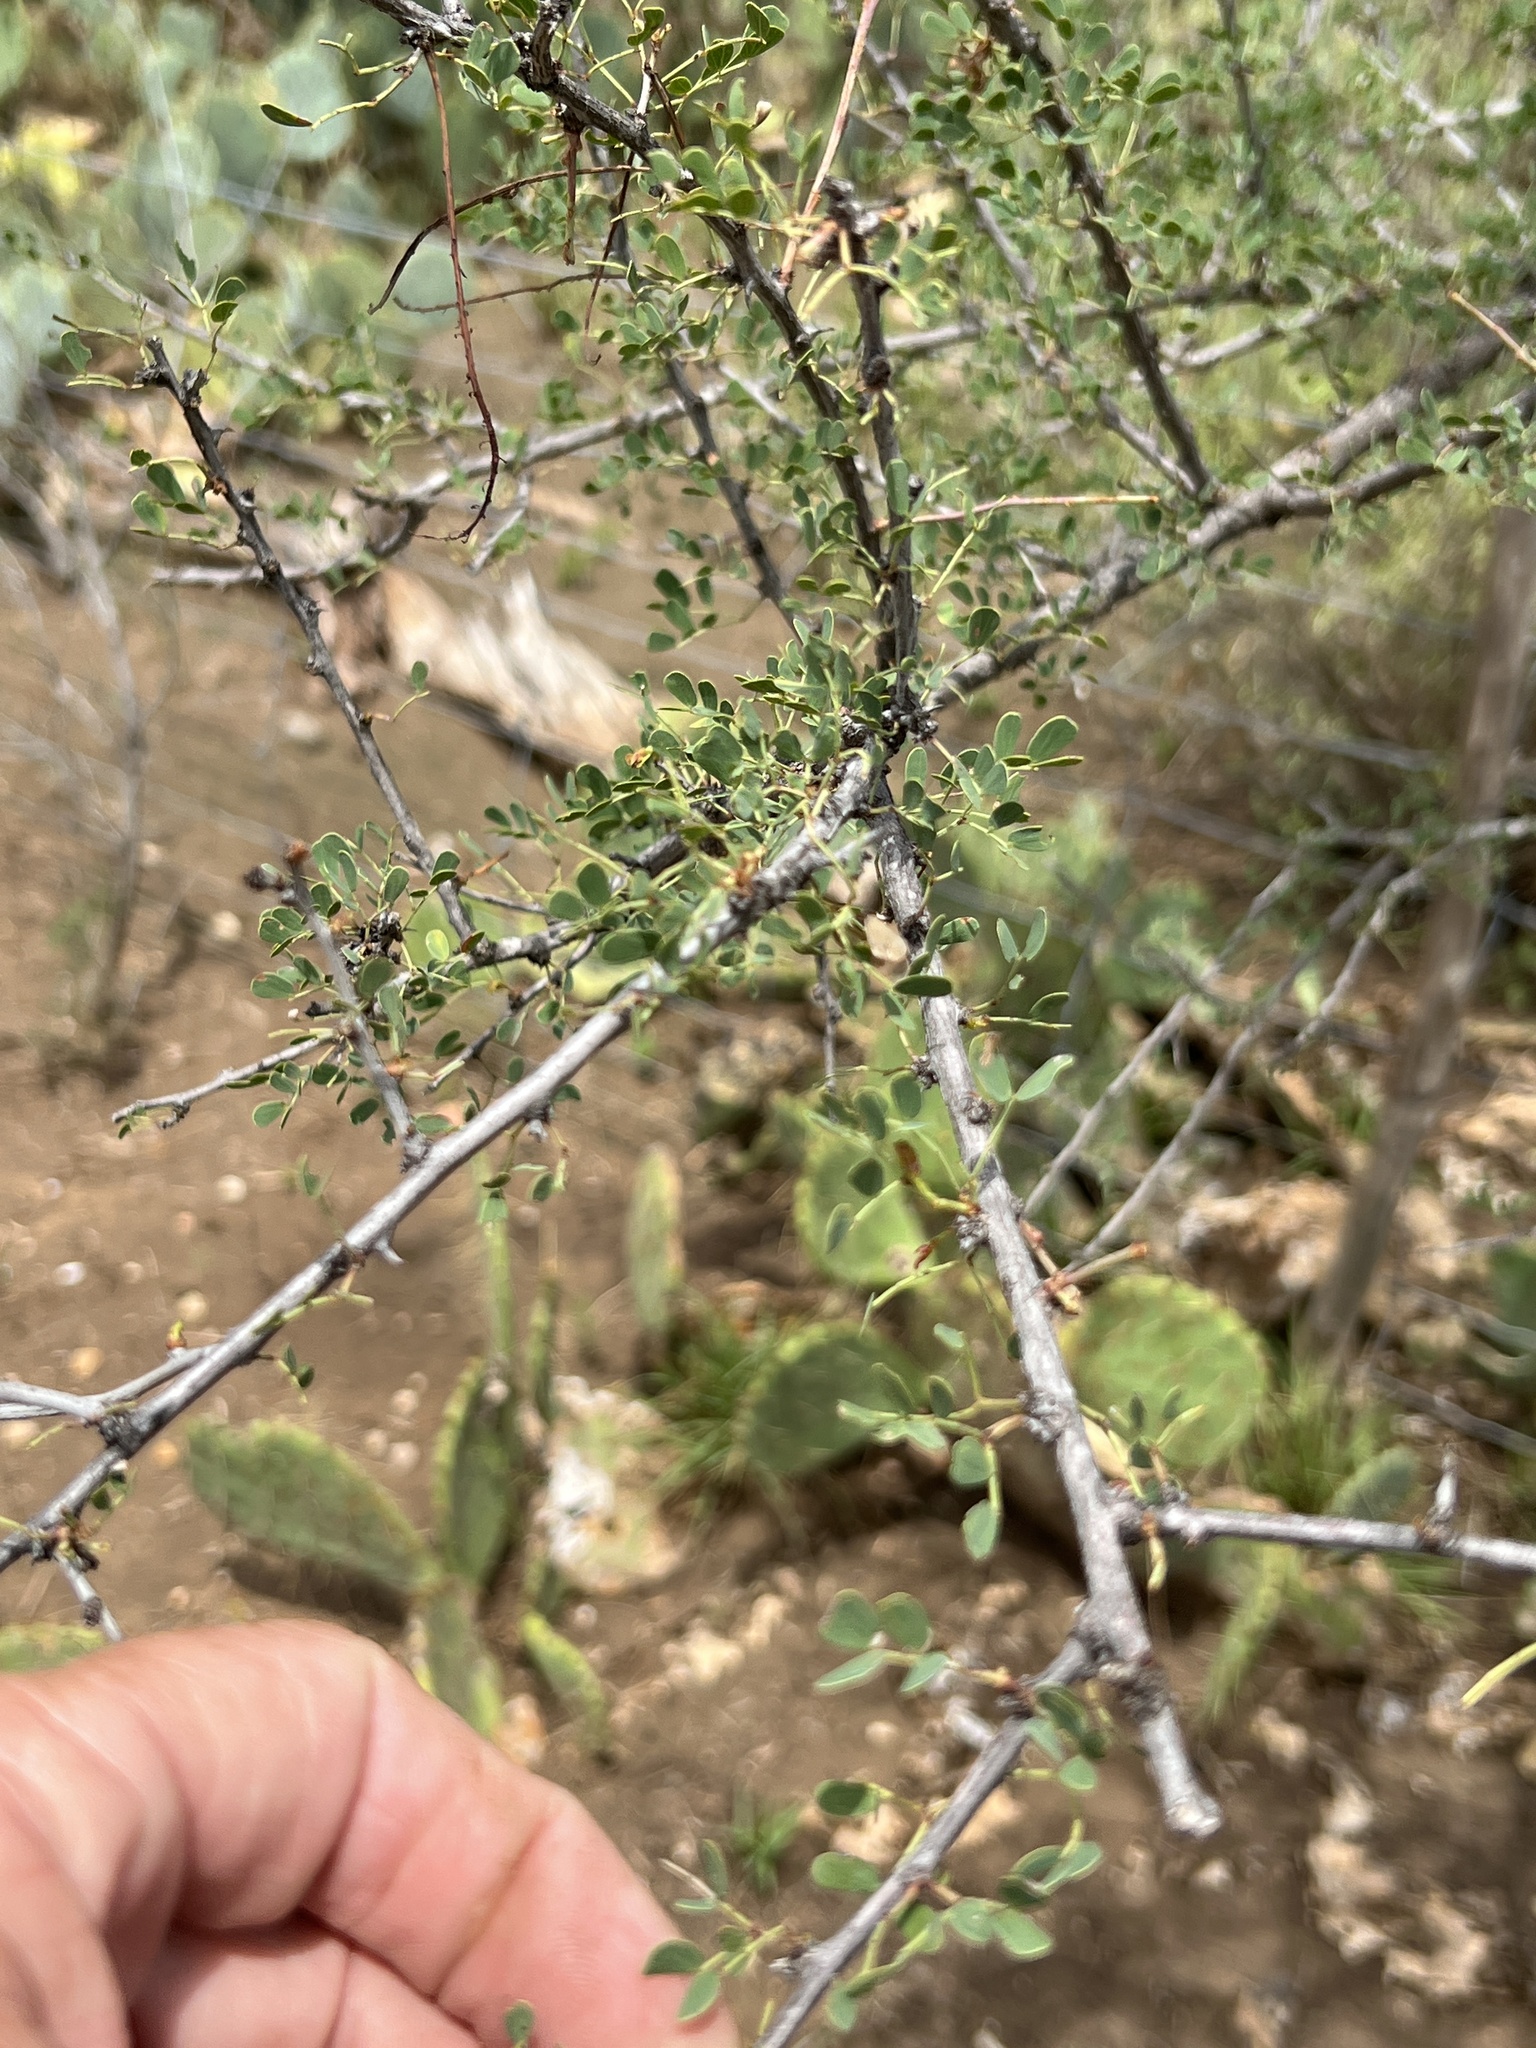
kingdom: Plantae
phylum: Tracheophyta
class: Magnoliopsida
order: Fabales
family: Fabaceae
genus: Senegalia
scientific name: Senegalia wrightii
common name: Texas cat's-claw
